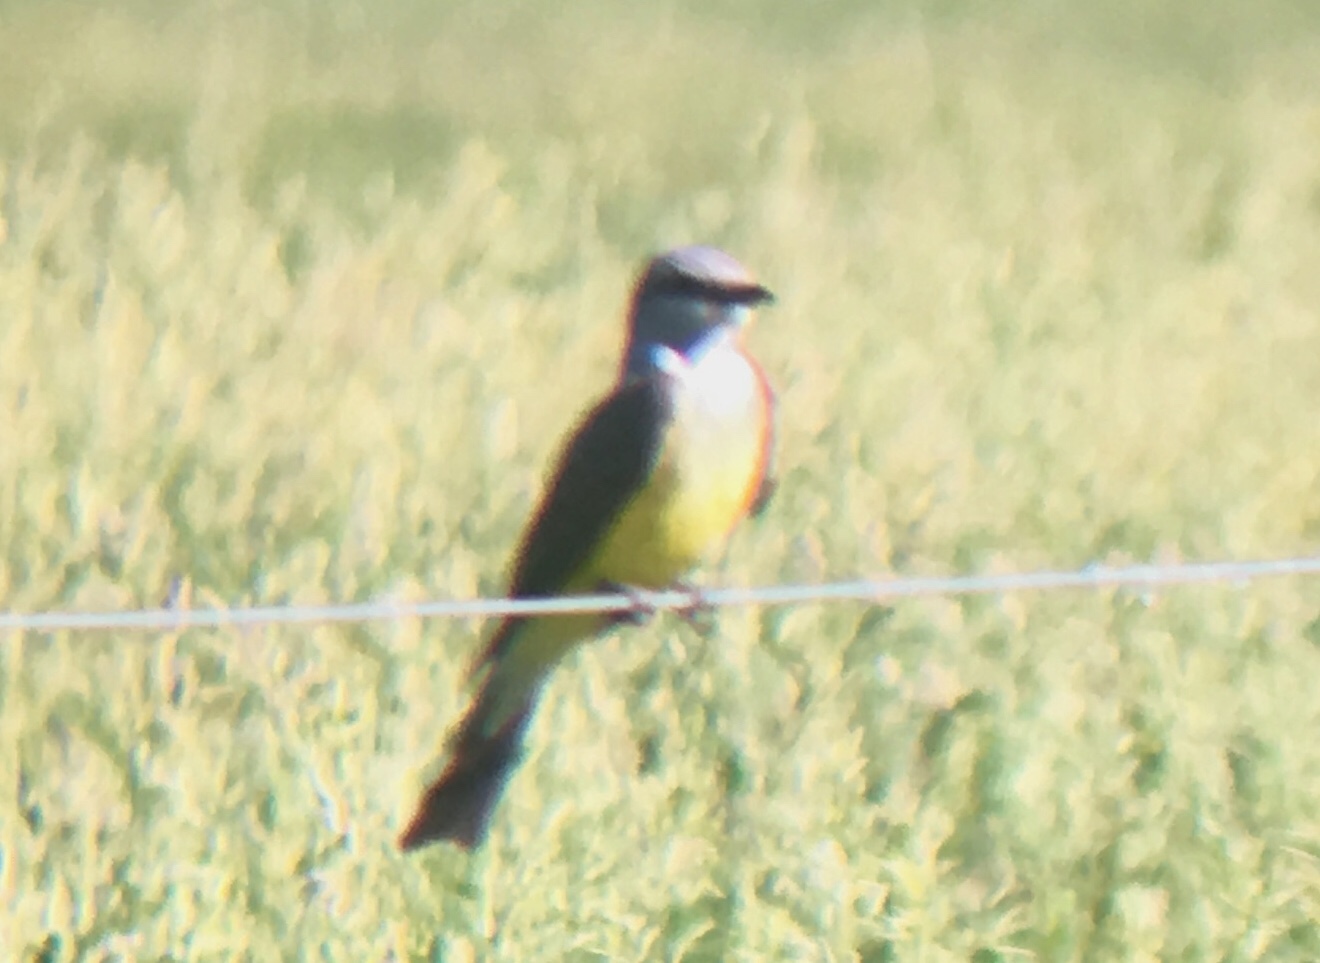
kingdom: Animalia
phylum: Chordata
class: Aves
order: Passeriformes
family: Tyrannidae
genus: Tyrannus
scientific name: Tyrannus verticalis
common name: Western kingbird
